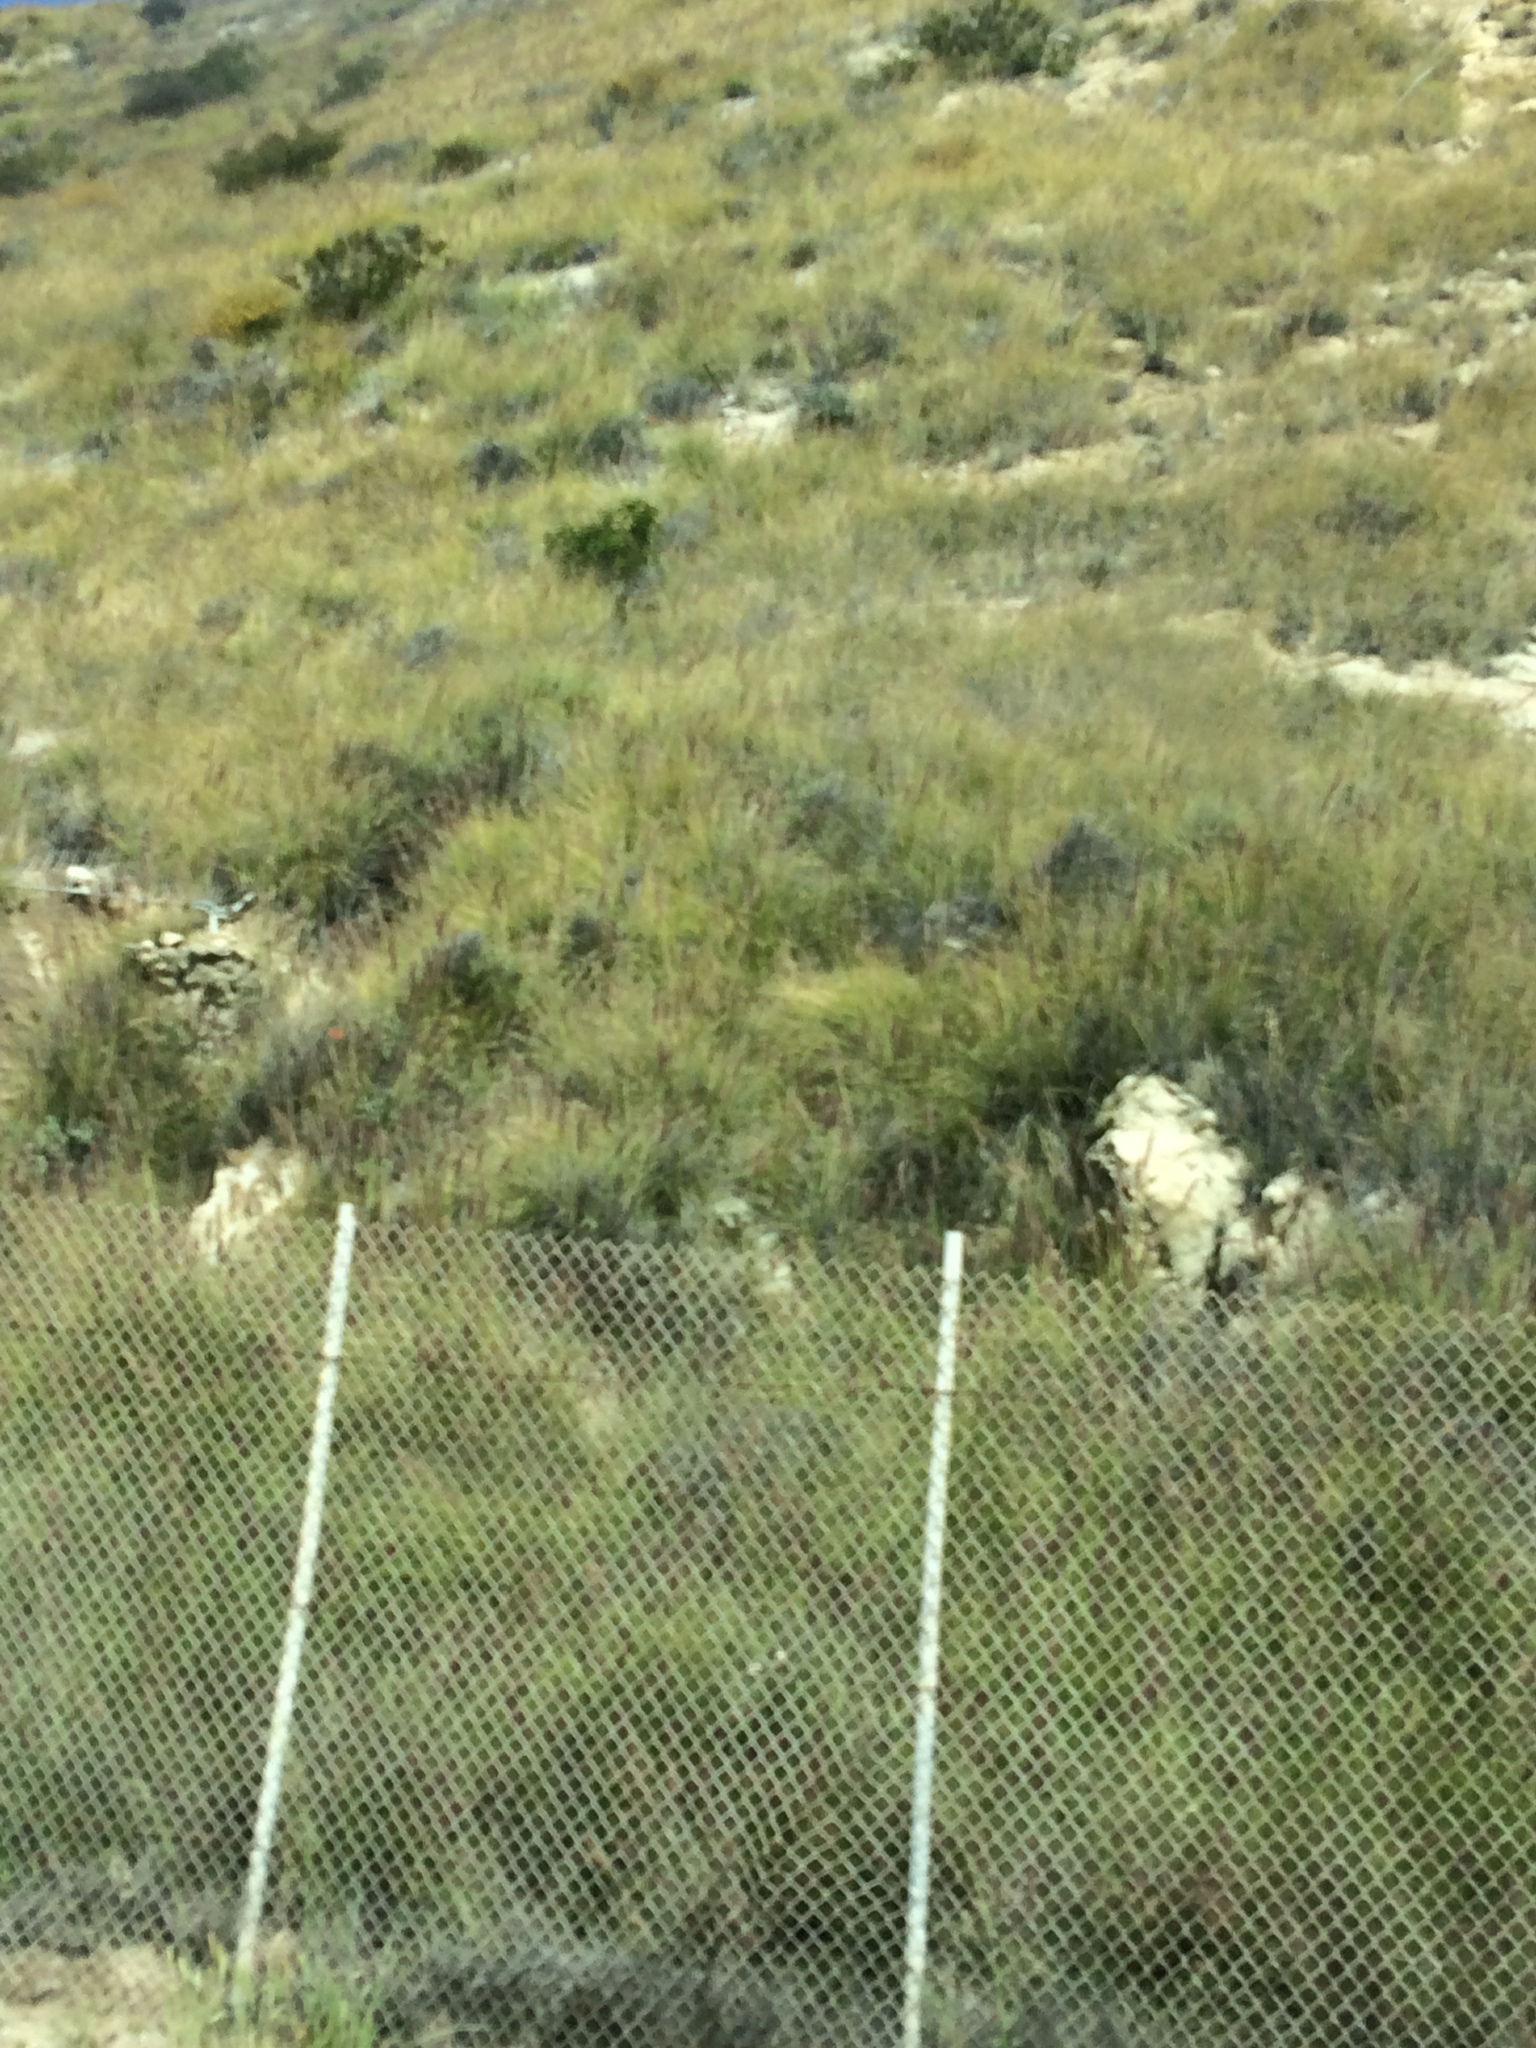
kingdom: Plantae
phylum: Tracheophyta
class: Liliopsida
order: Poales
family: Poaceae
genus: Cenchrus
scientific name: Cenchrus setaceus
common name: Crimson fountaingrass
